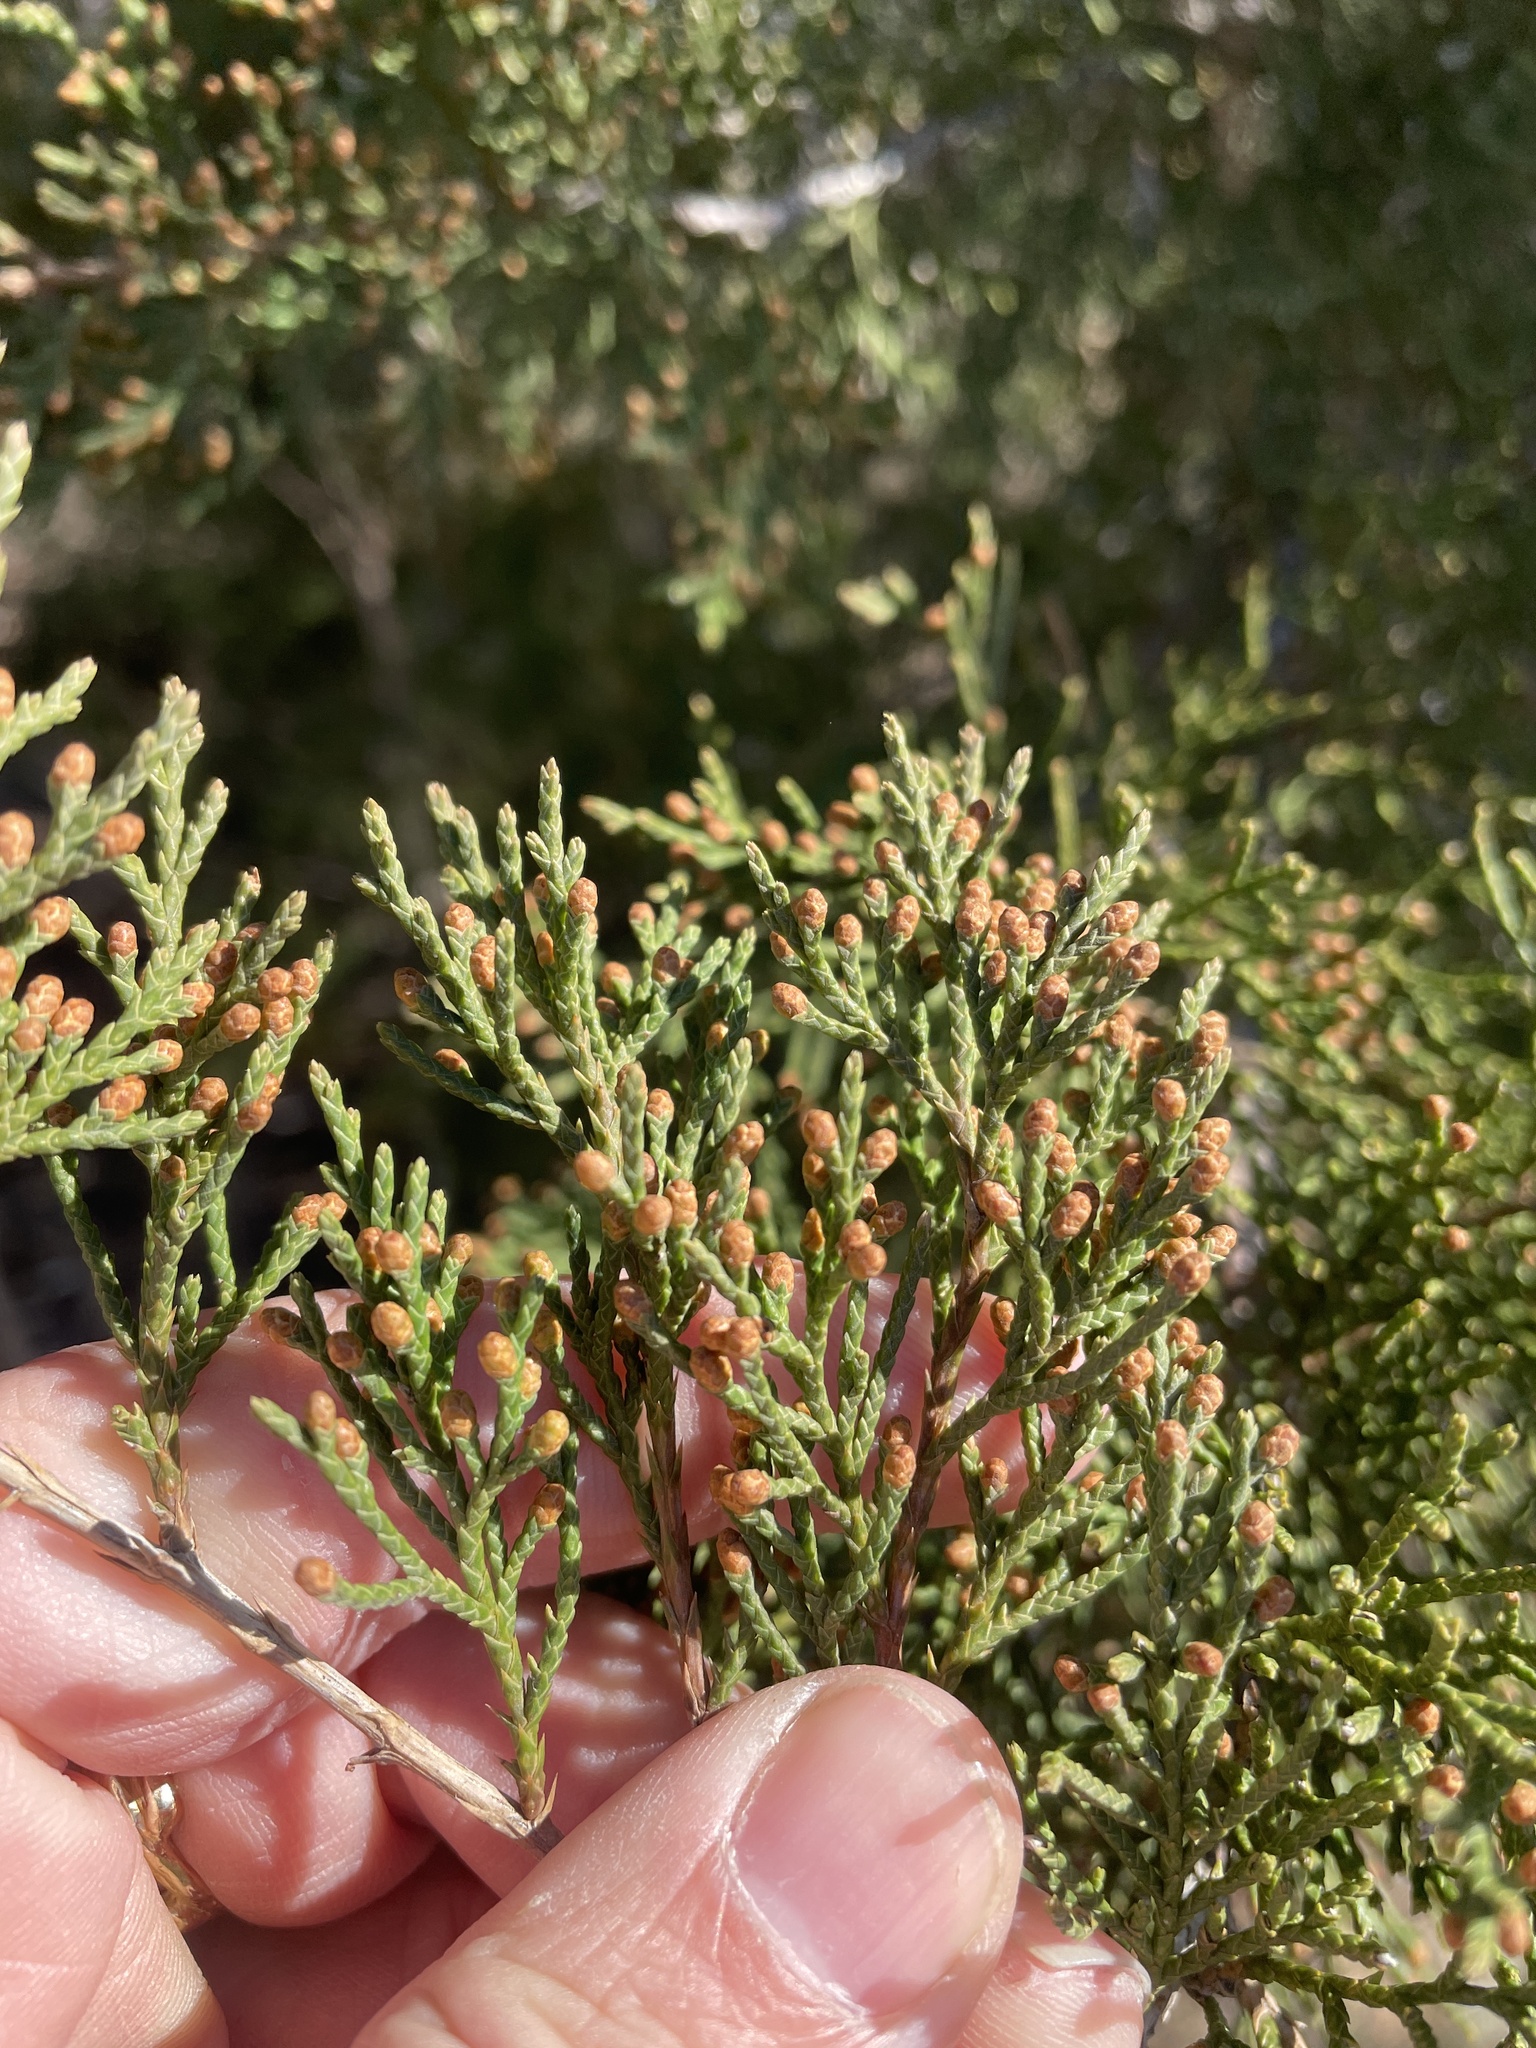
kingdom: Plantae
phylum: Tracheophyta
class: Pinopsida
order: Pinales
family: Cupressaceae
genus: Juniperus
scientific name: Juniperus virginiana
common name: Red juniper
